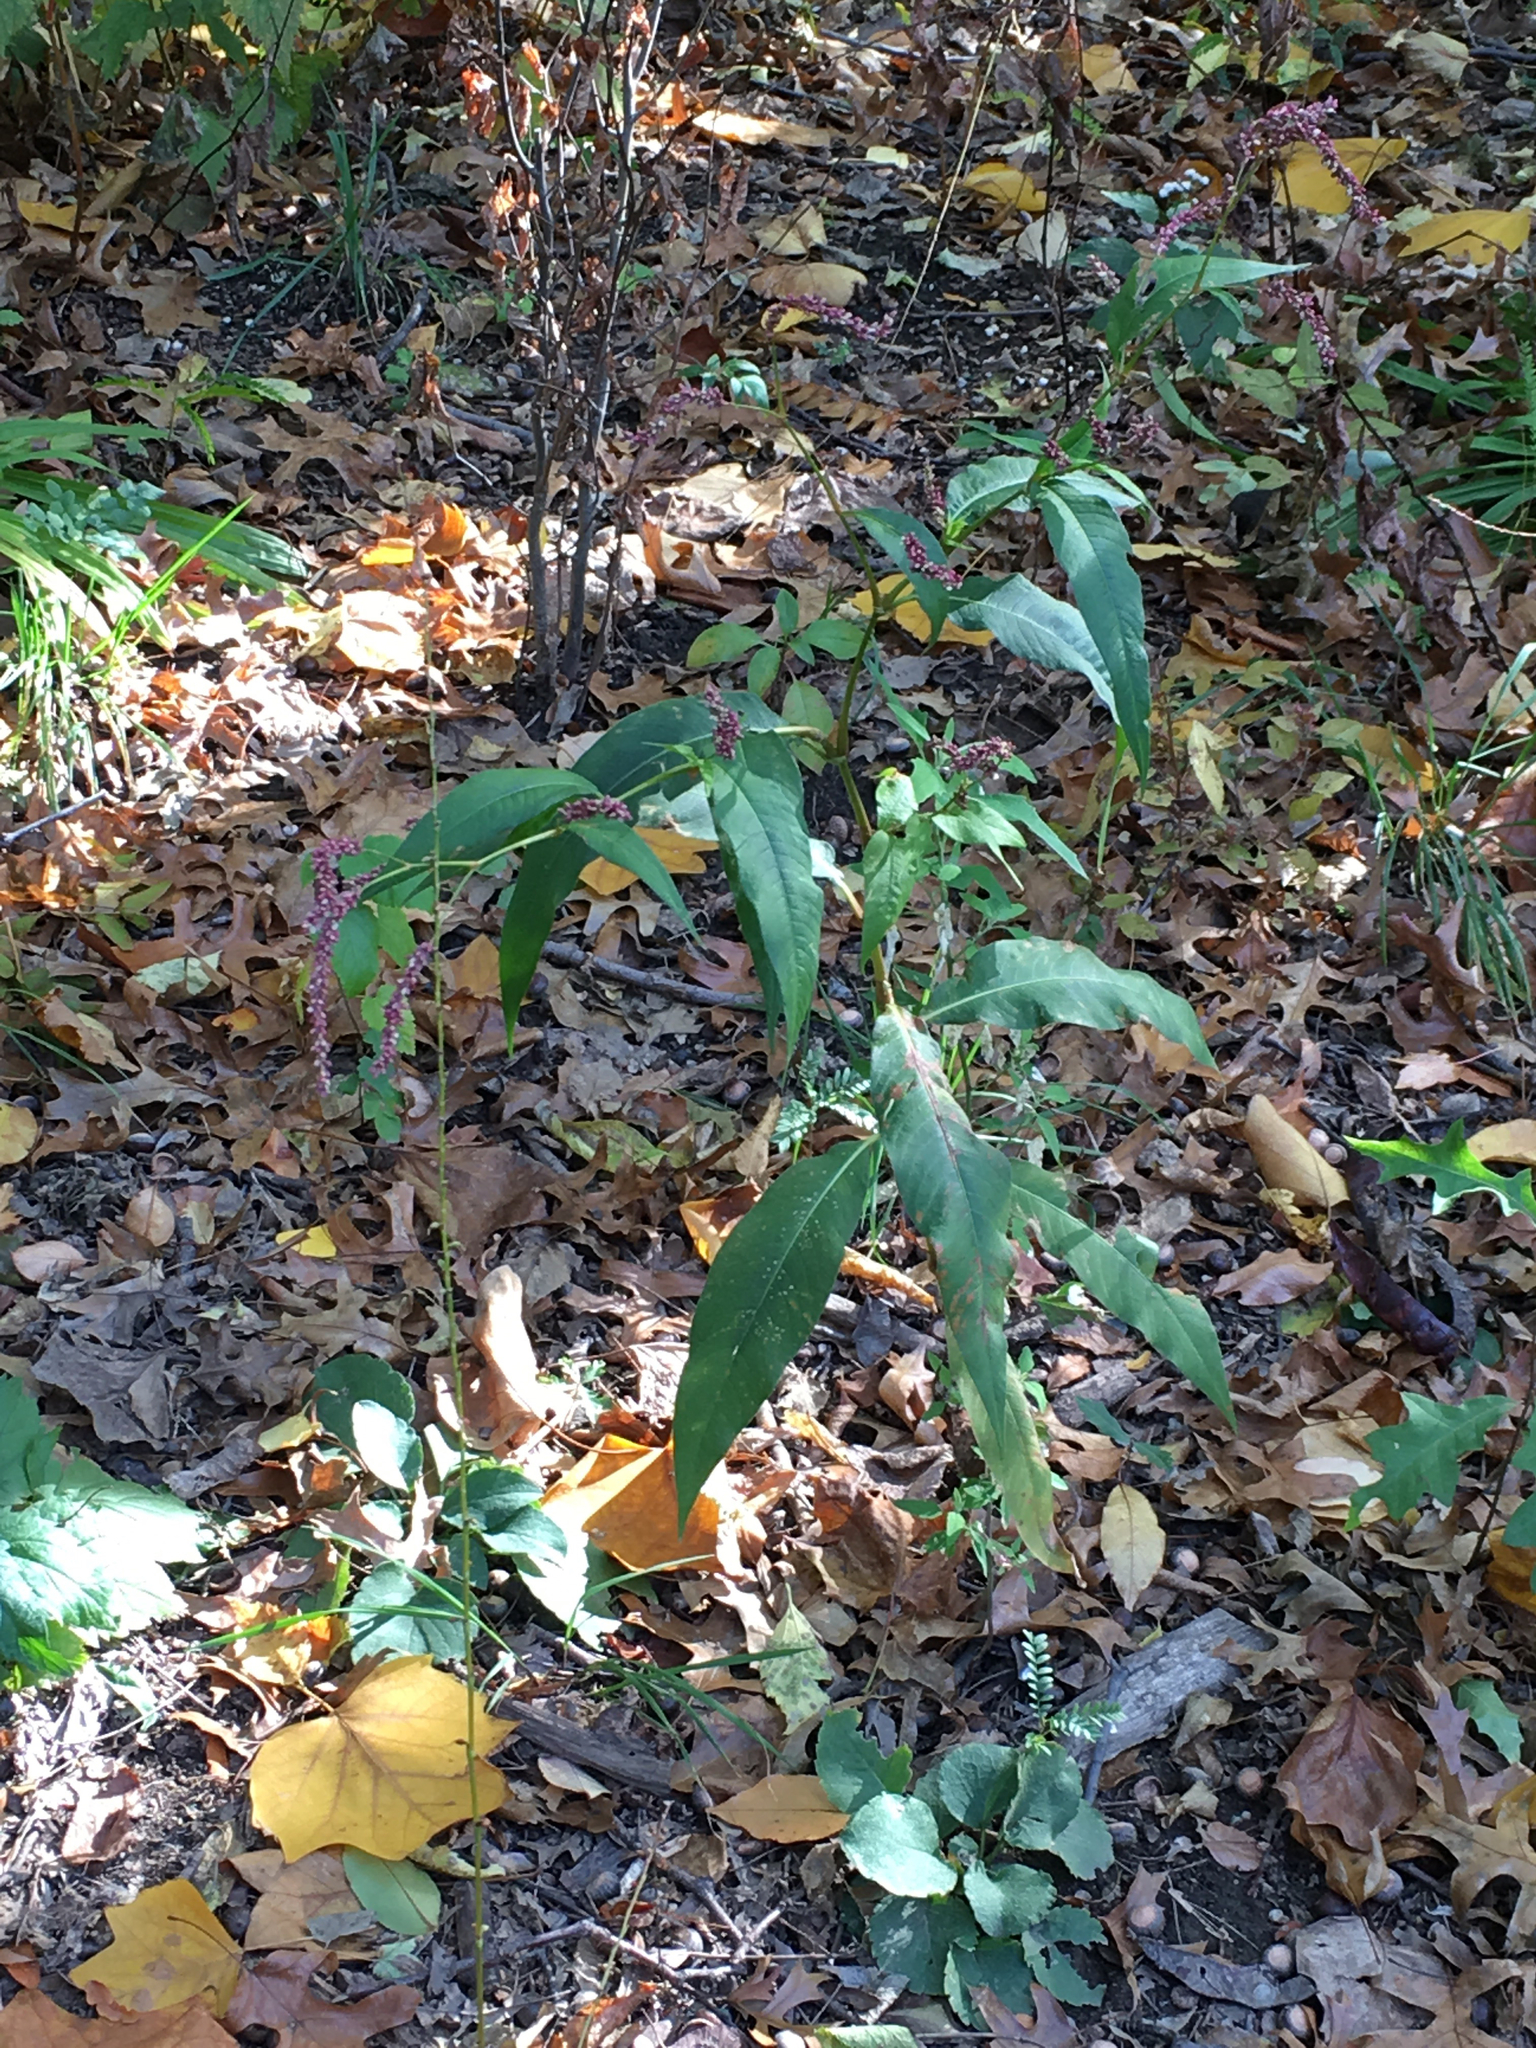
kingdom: Plantae
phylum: Tracheophyta
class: Magnoliopsida
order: Caryophyllales
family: Polygonaceae
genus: Persicaria
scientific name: Persicaria extremiorientalis
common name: Far-eastern smartweed
